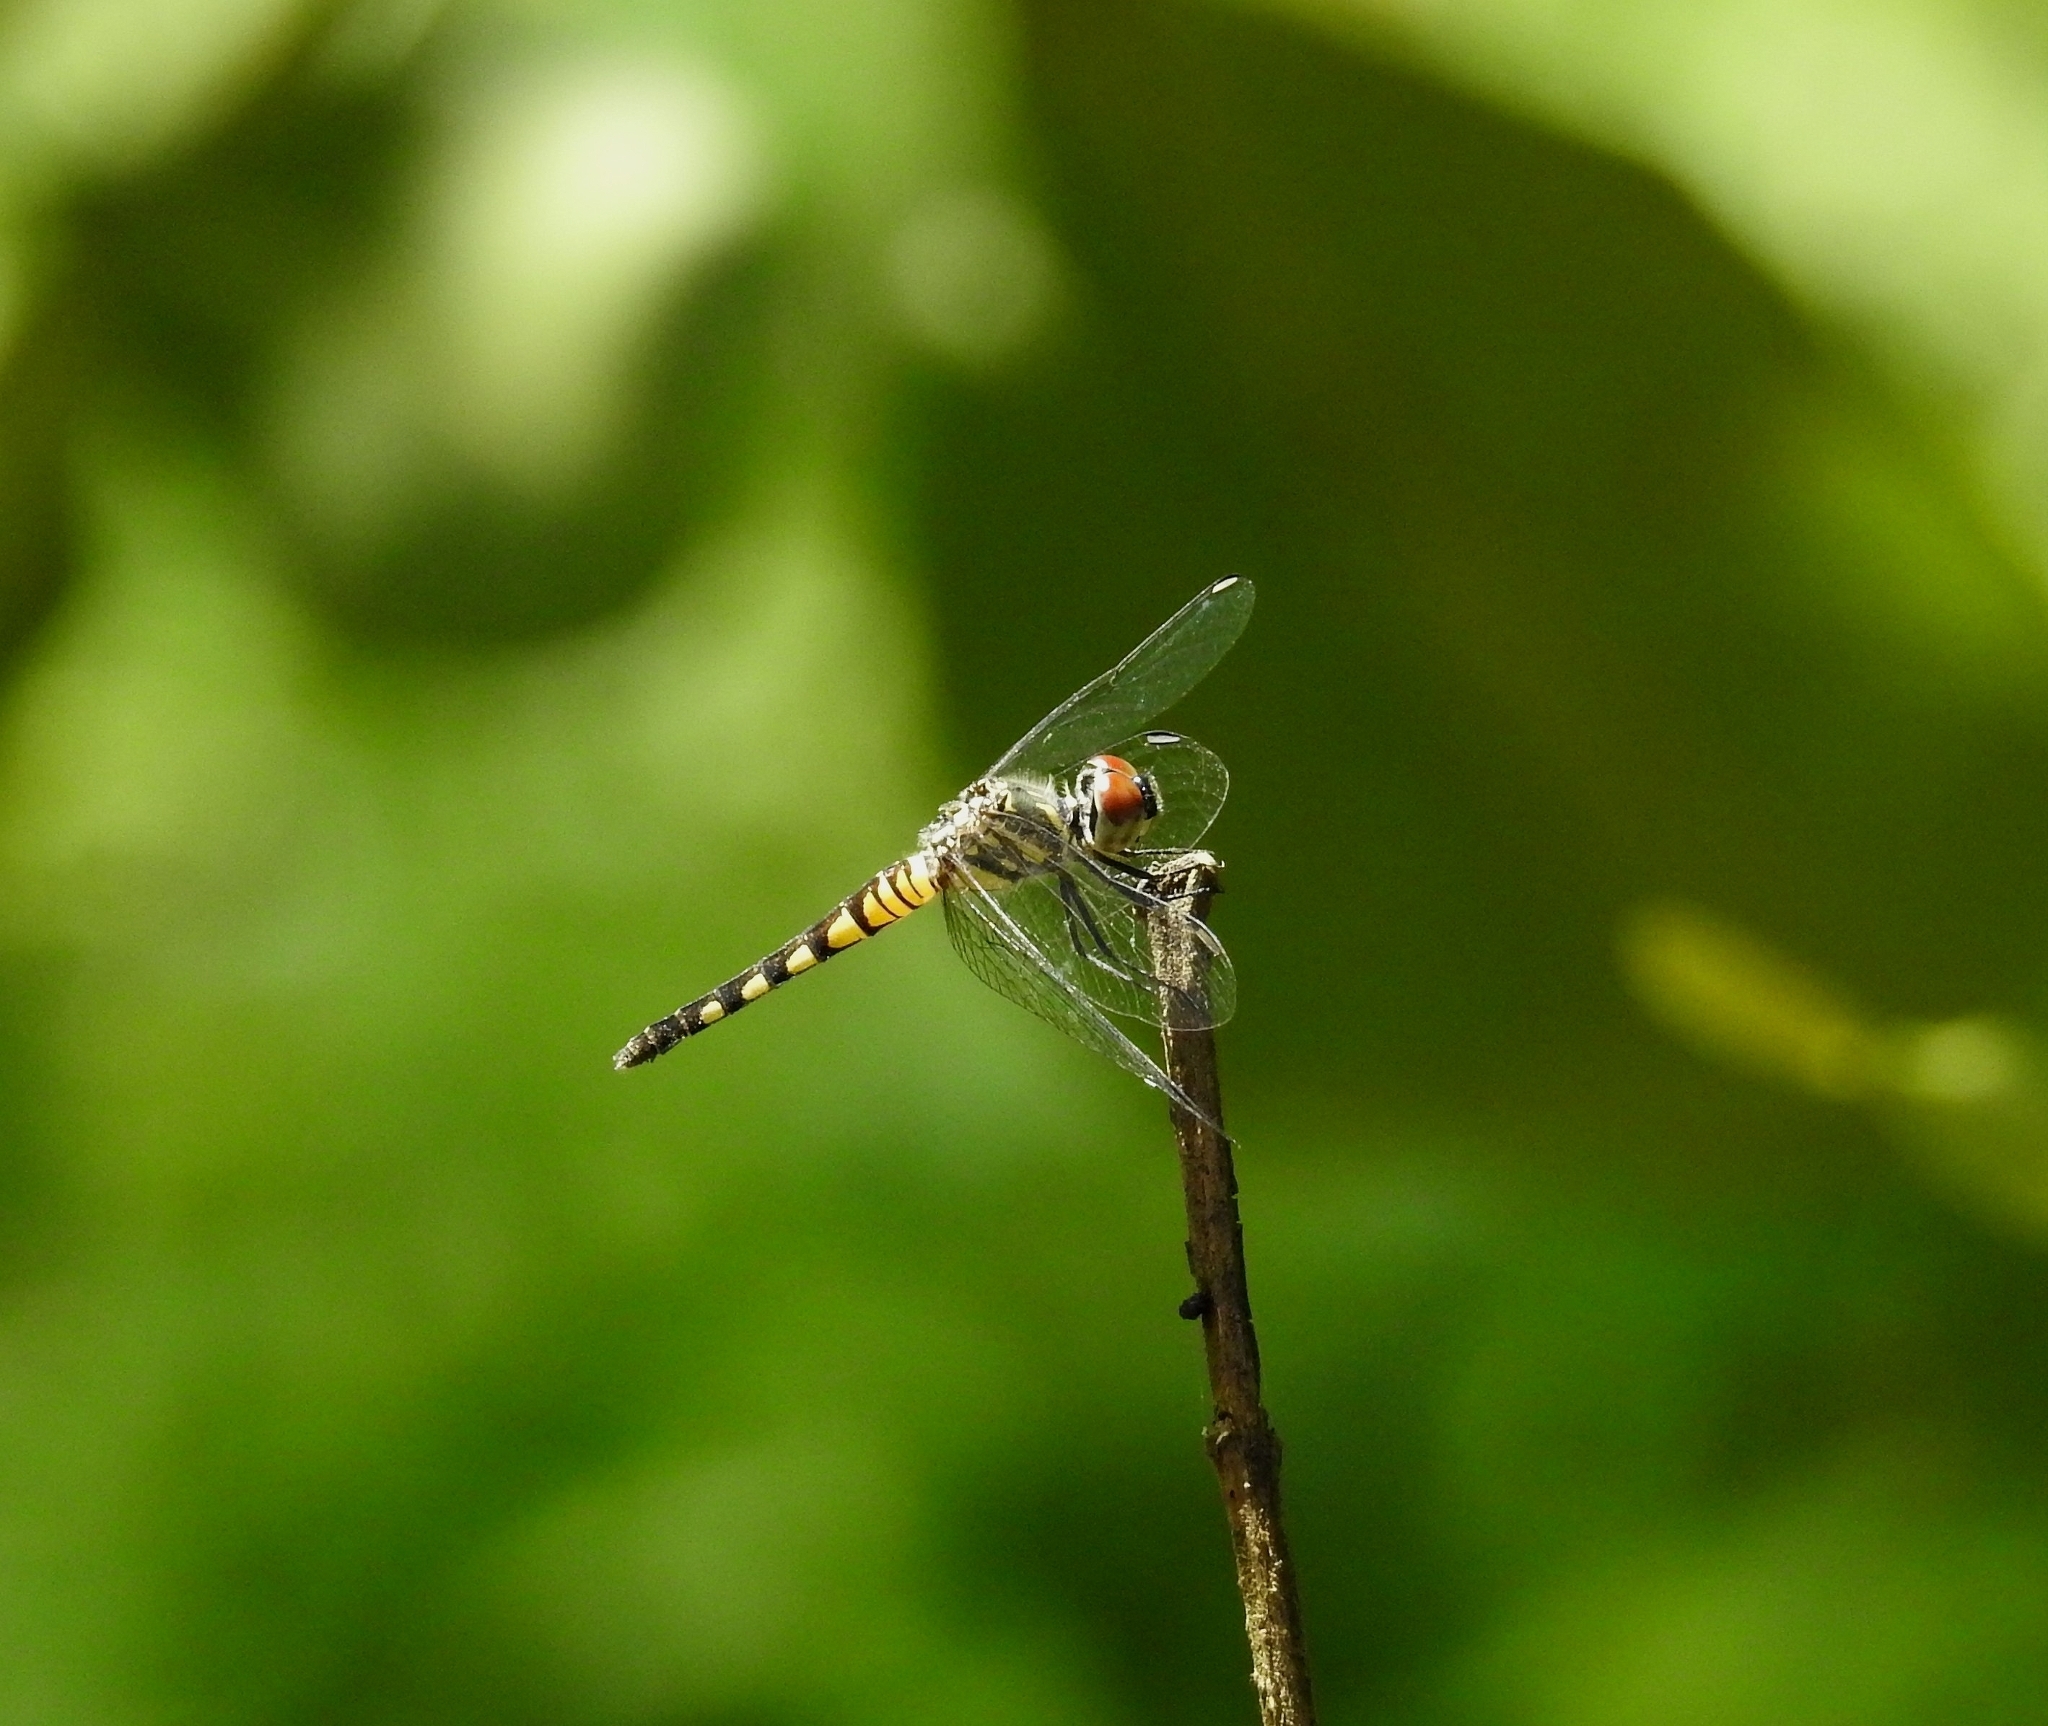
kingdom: Animalia
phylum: Arthropoda
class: Insecta
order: Odonata
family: Libellulidae
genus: Brachydiplax
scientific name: Brachydiplax sobrina
